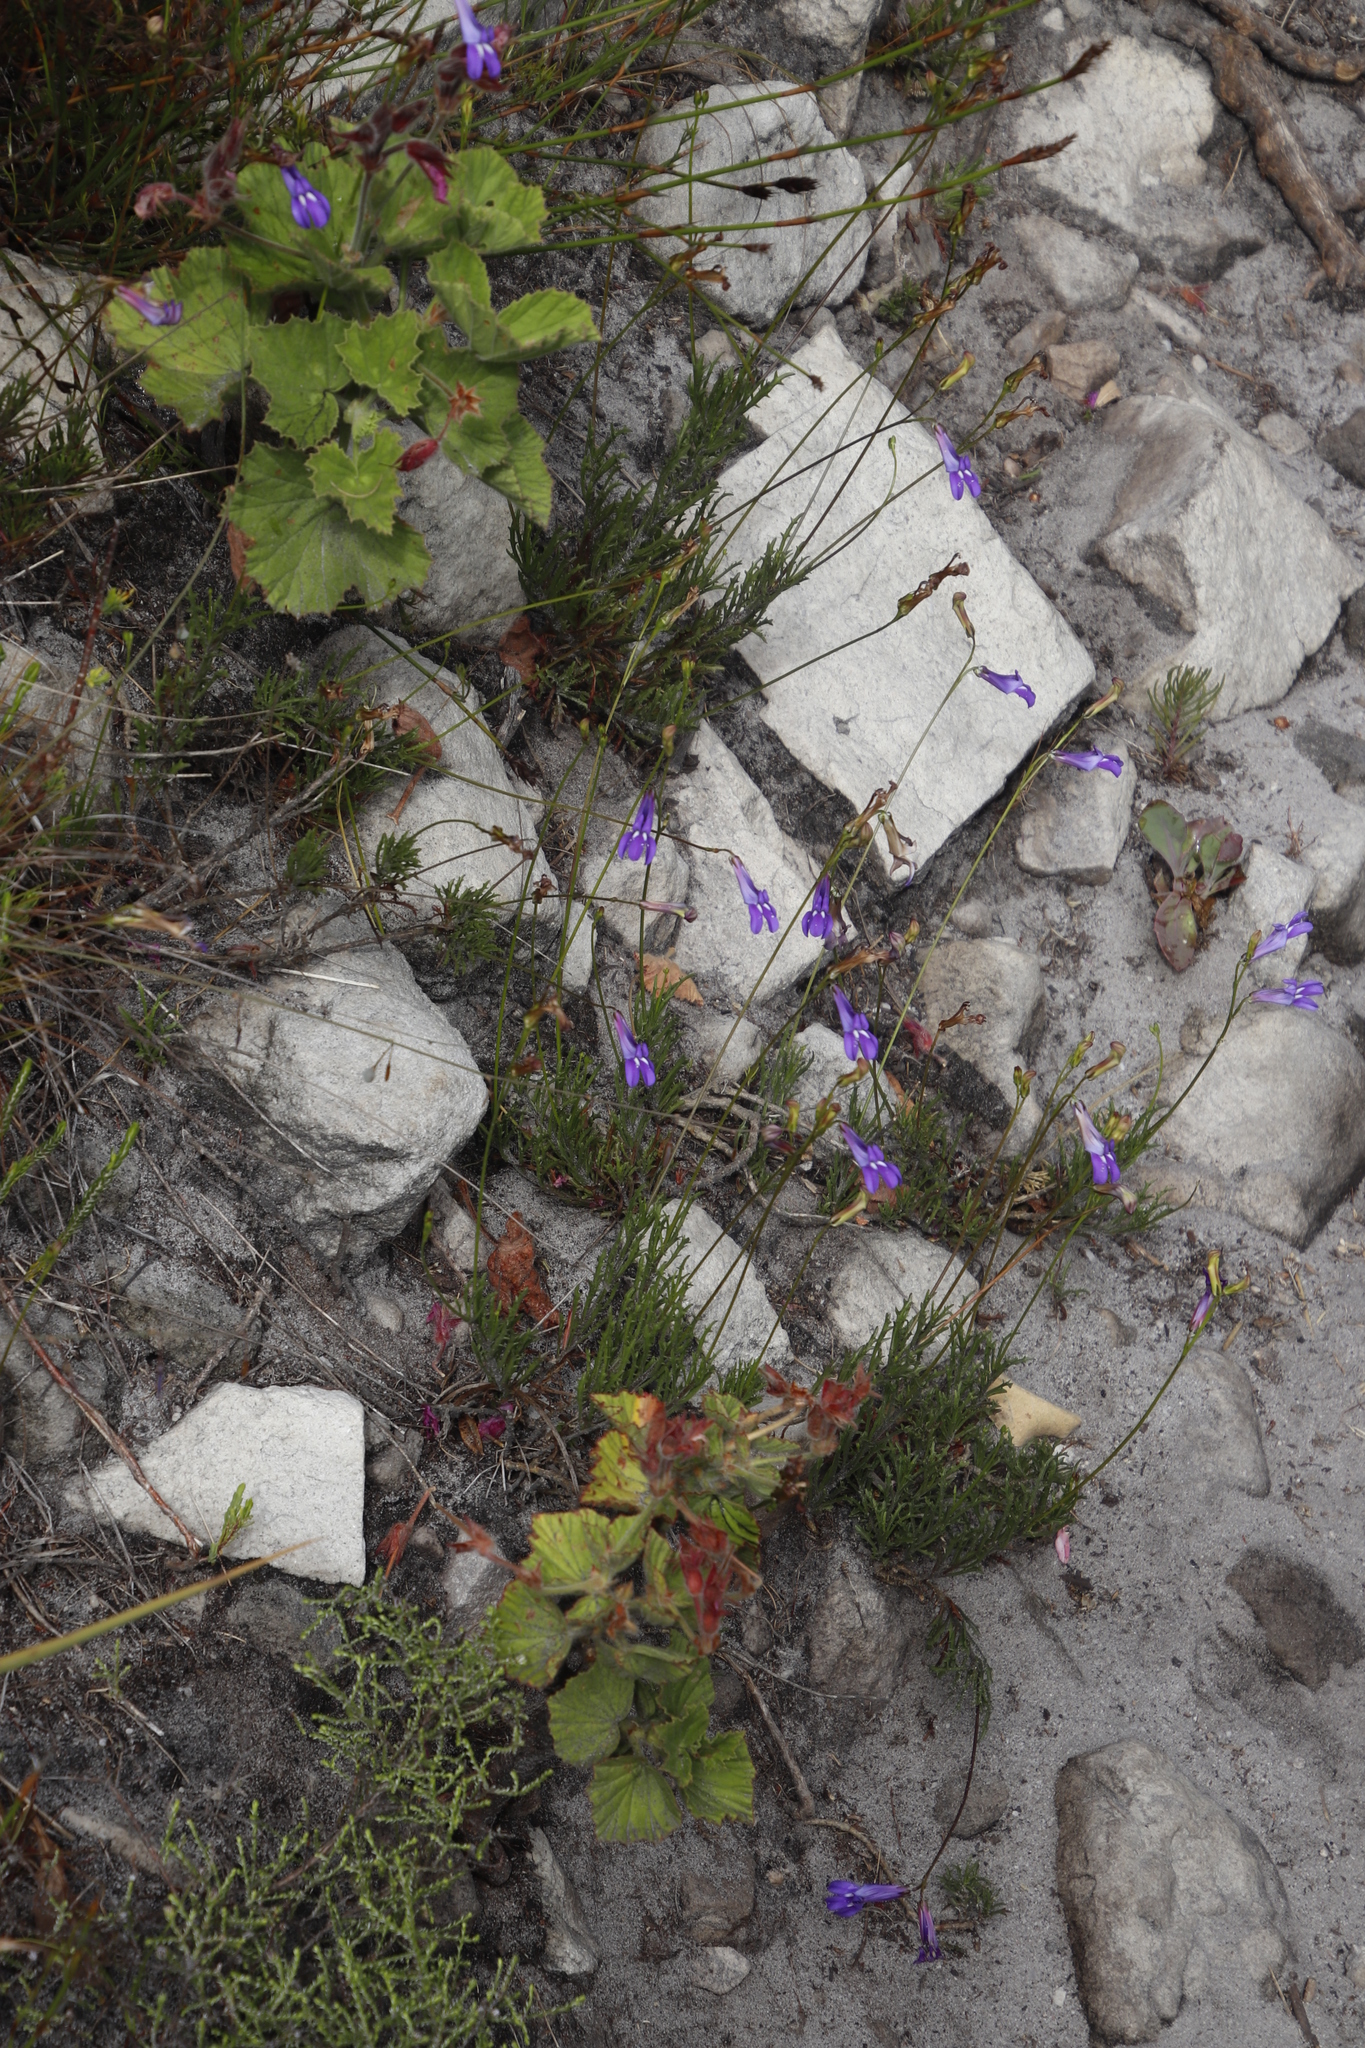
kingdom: Plantae
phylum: Tracheophyta
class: Magnoliopsida
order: Asterales
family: Campanulaceae
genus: Lobelia
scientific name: Lobelia coronopifolia
